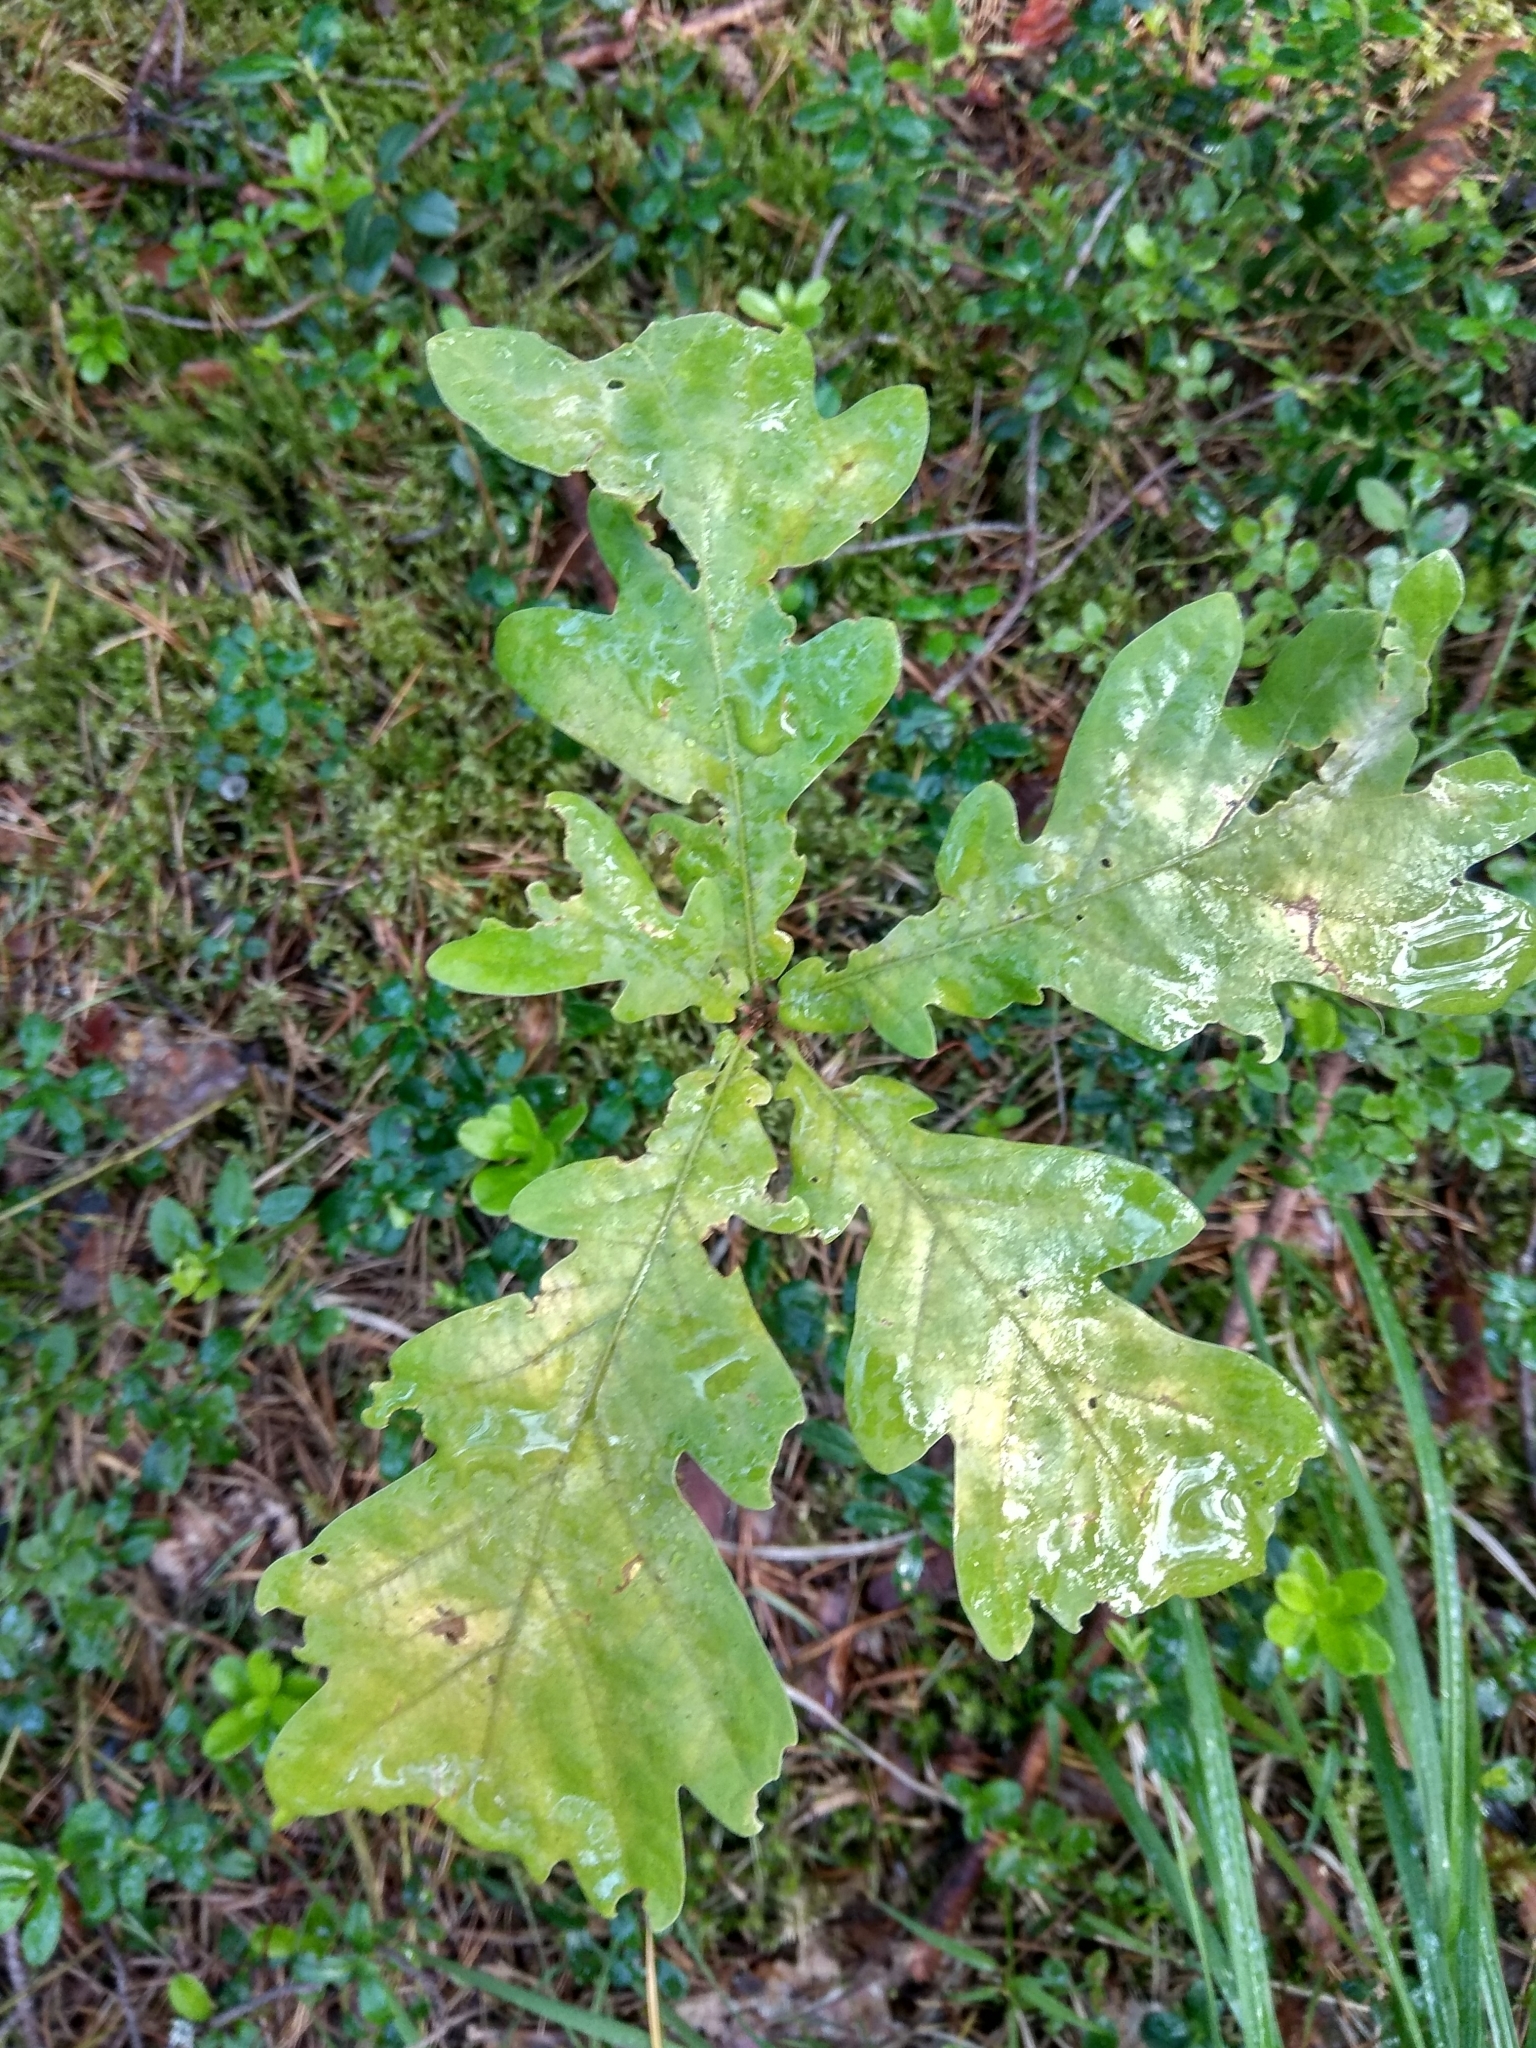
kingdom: Plantae
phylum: Tracheophyta
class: Magnoliopsida
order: Fagales
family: Fagaceae
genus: Quercus
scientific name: Quercus robur
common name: Pedunculate oak
